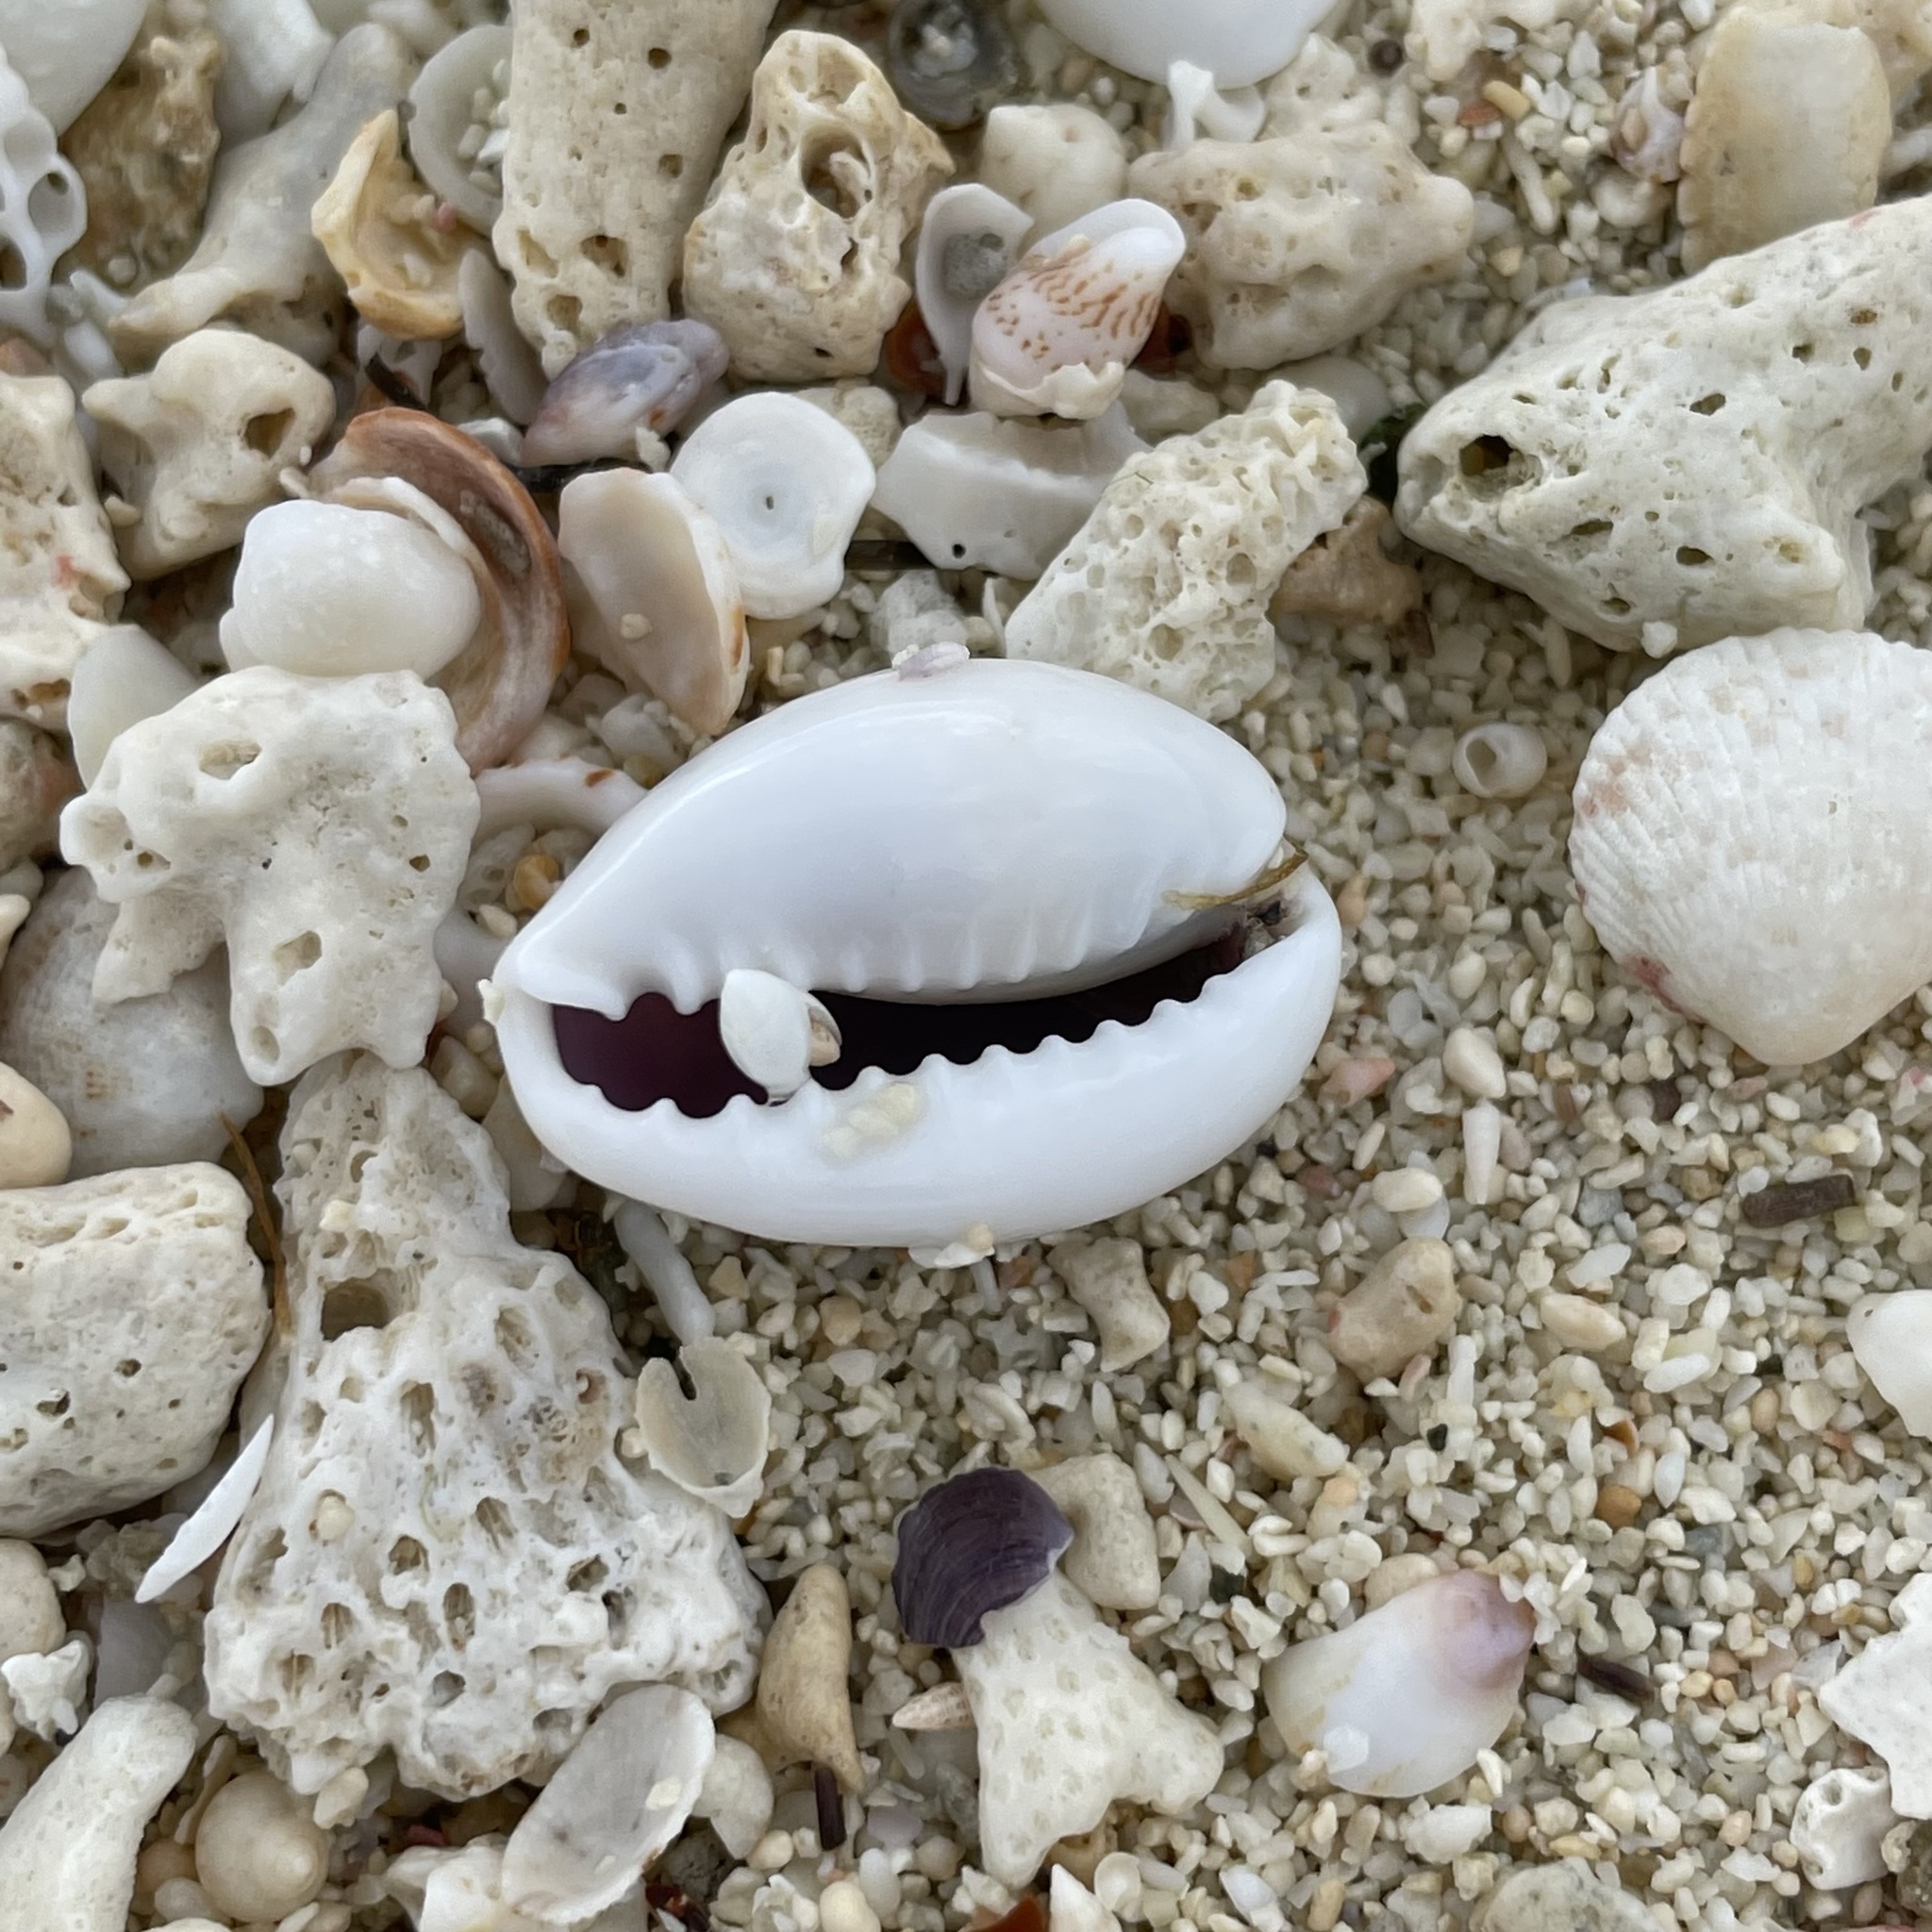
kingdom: Animalia
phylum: Mollusca
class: Gastropoda
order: Littorinimorpha
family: Cypraeidae
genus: Monetaria
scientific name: Monetaria annulus
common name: Ring cowrie
